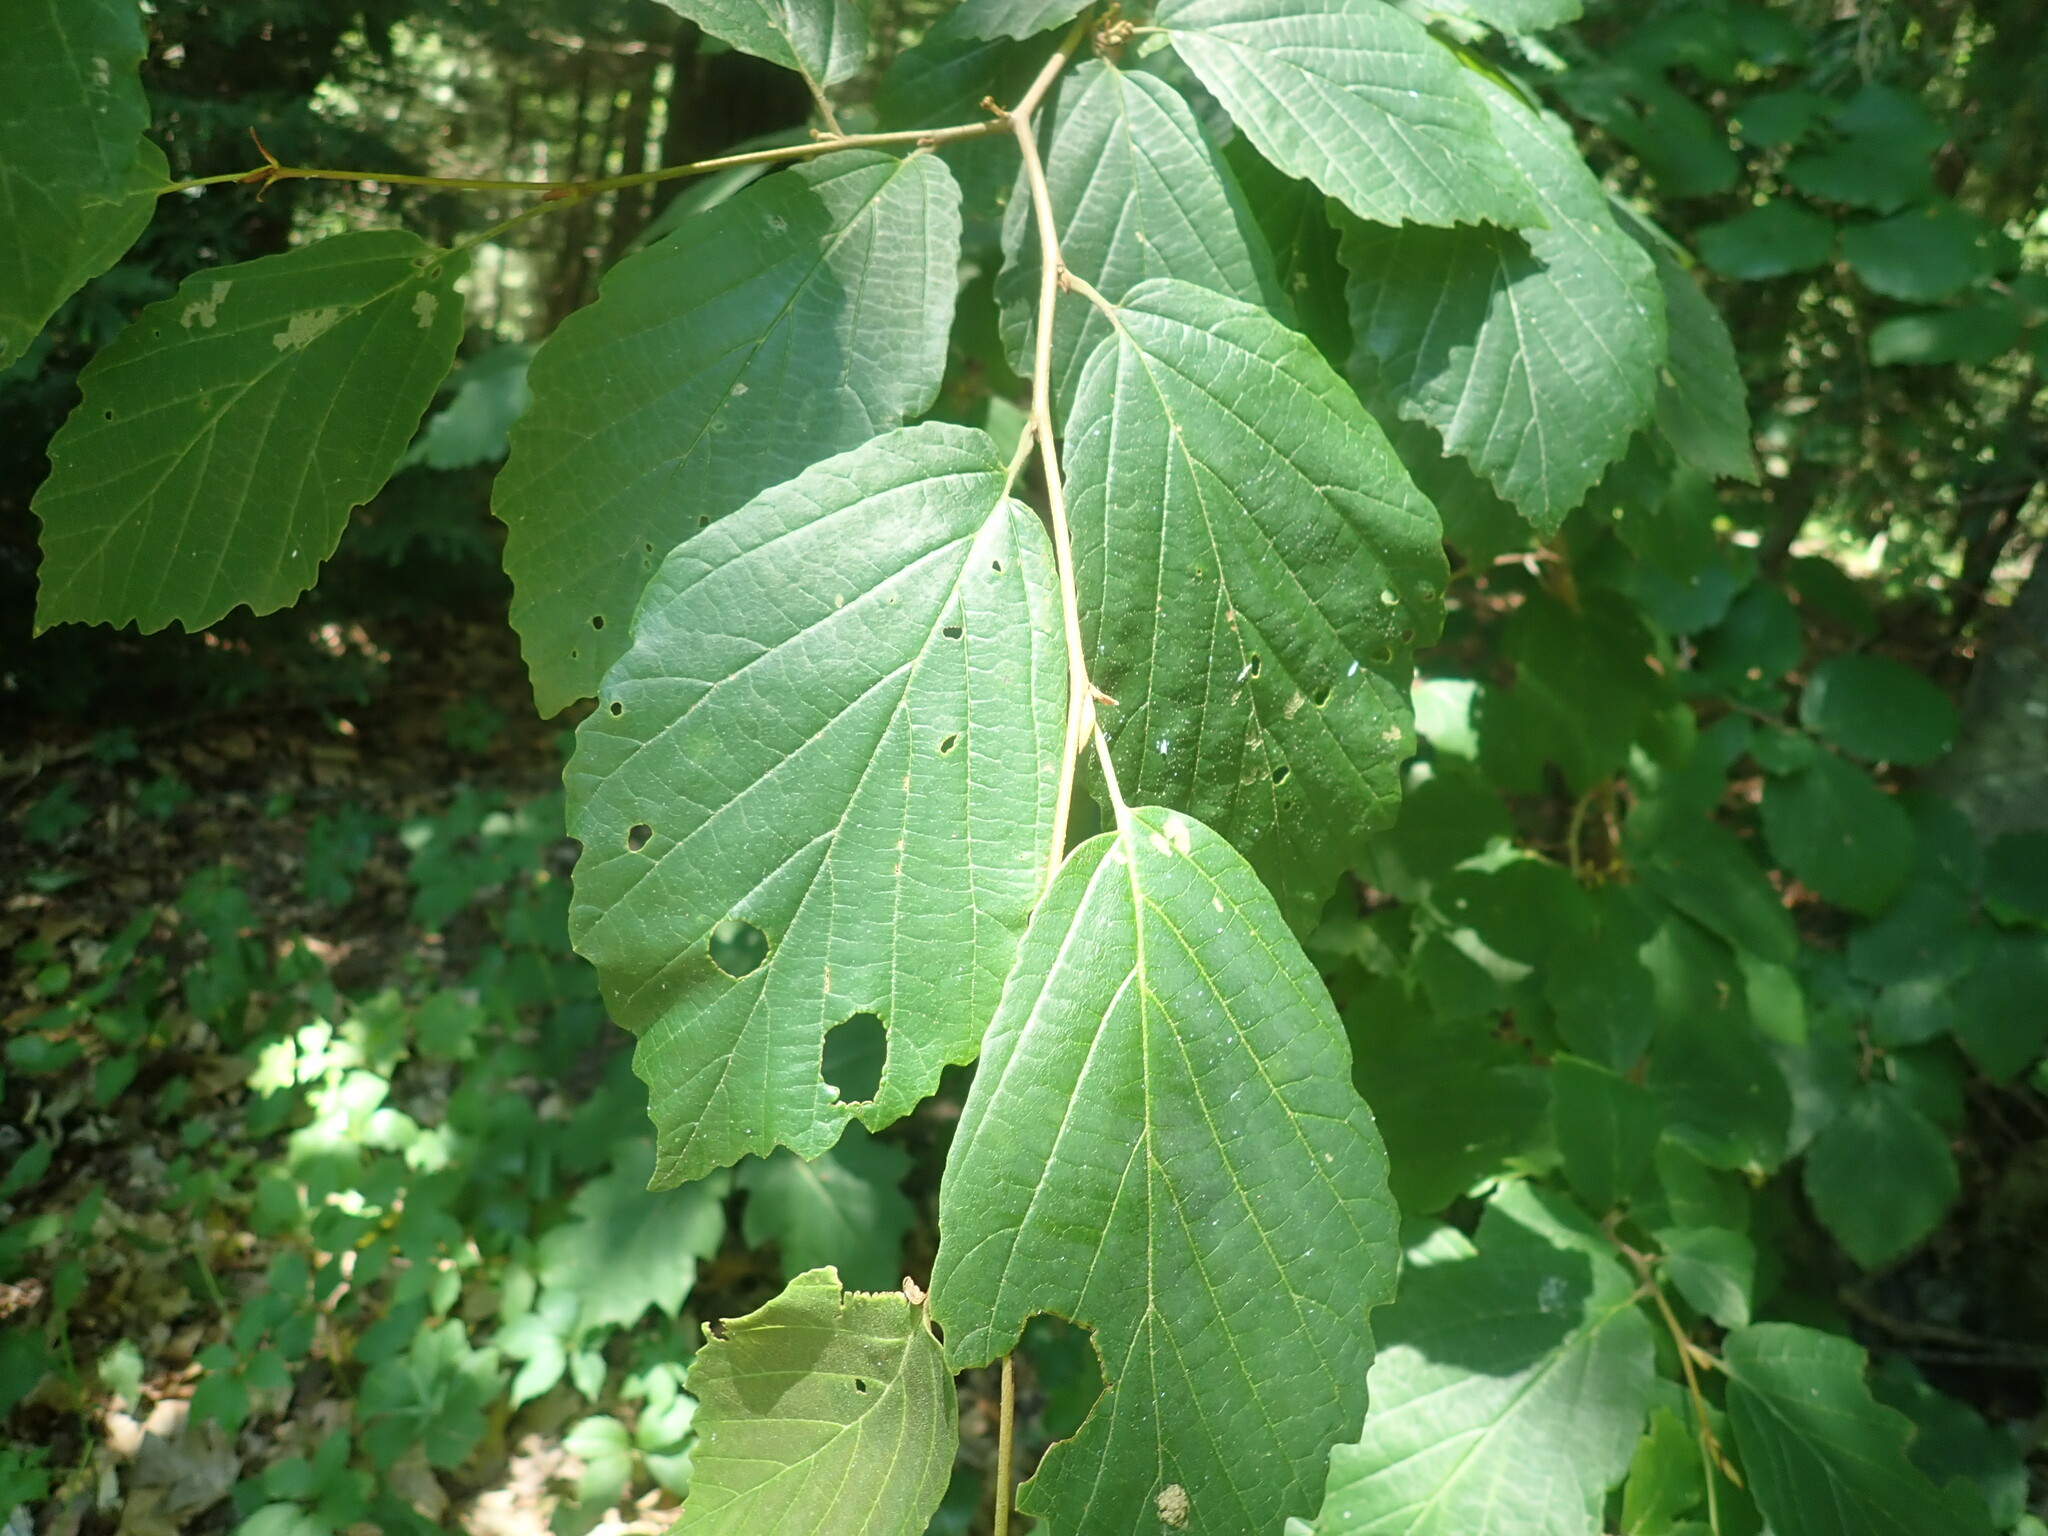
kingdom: Plantae
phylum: Tracheophyta
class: Magnoliopsida
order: Saxifragales
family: Hamamelidaceae
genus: Hamamelis
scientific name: Hamamelis virginiana
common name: Witch-hazel
